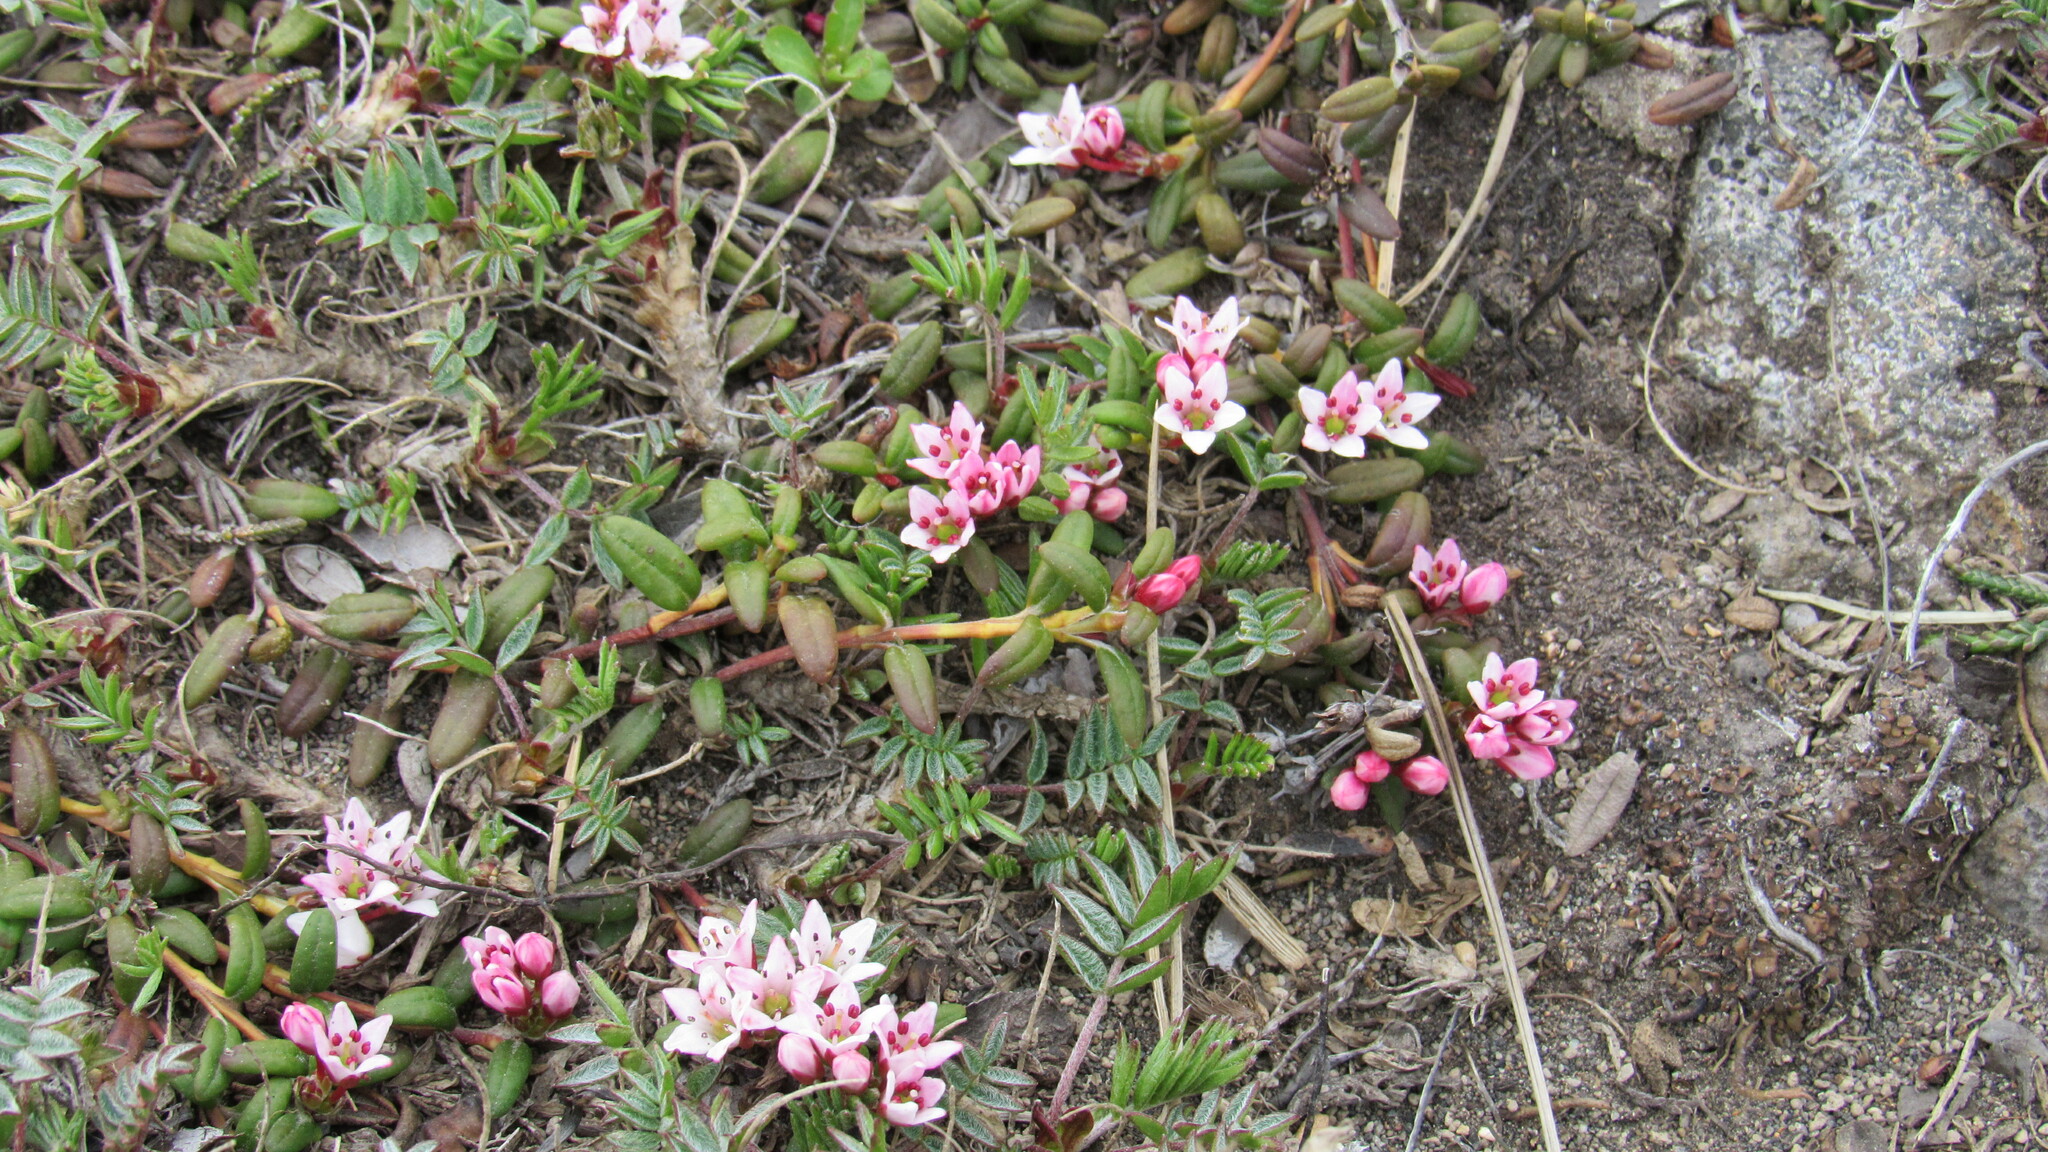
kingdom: Plantae
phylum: Tracheophyta
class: Magnoliopsida
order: Ericales
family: Ericaceae
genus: Kalmia
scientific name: Kalmia procumbens
